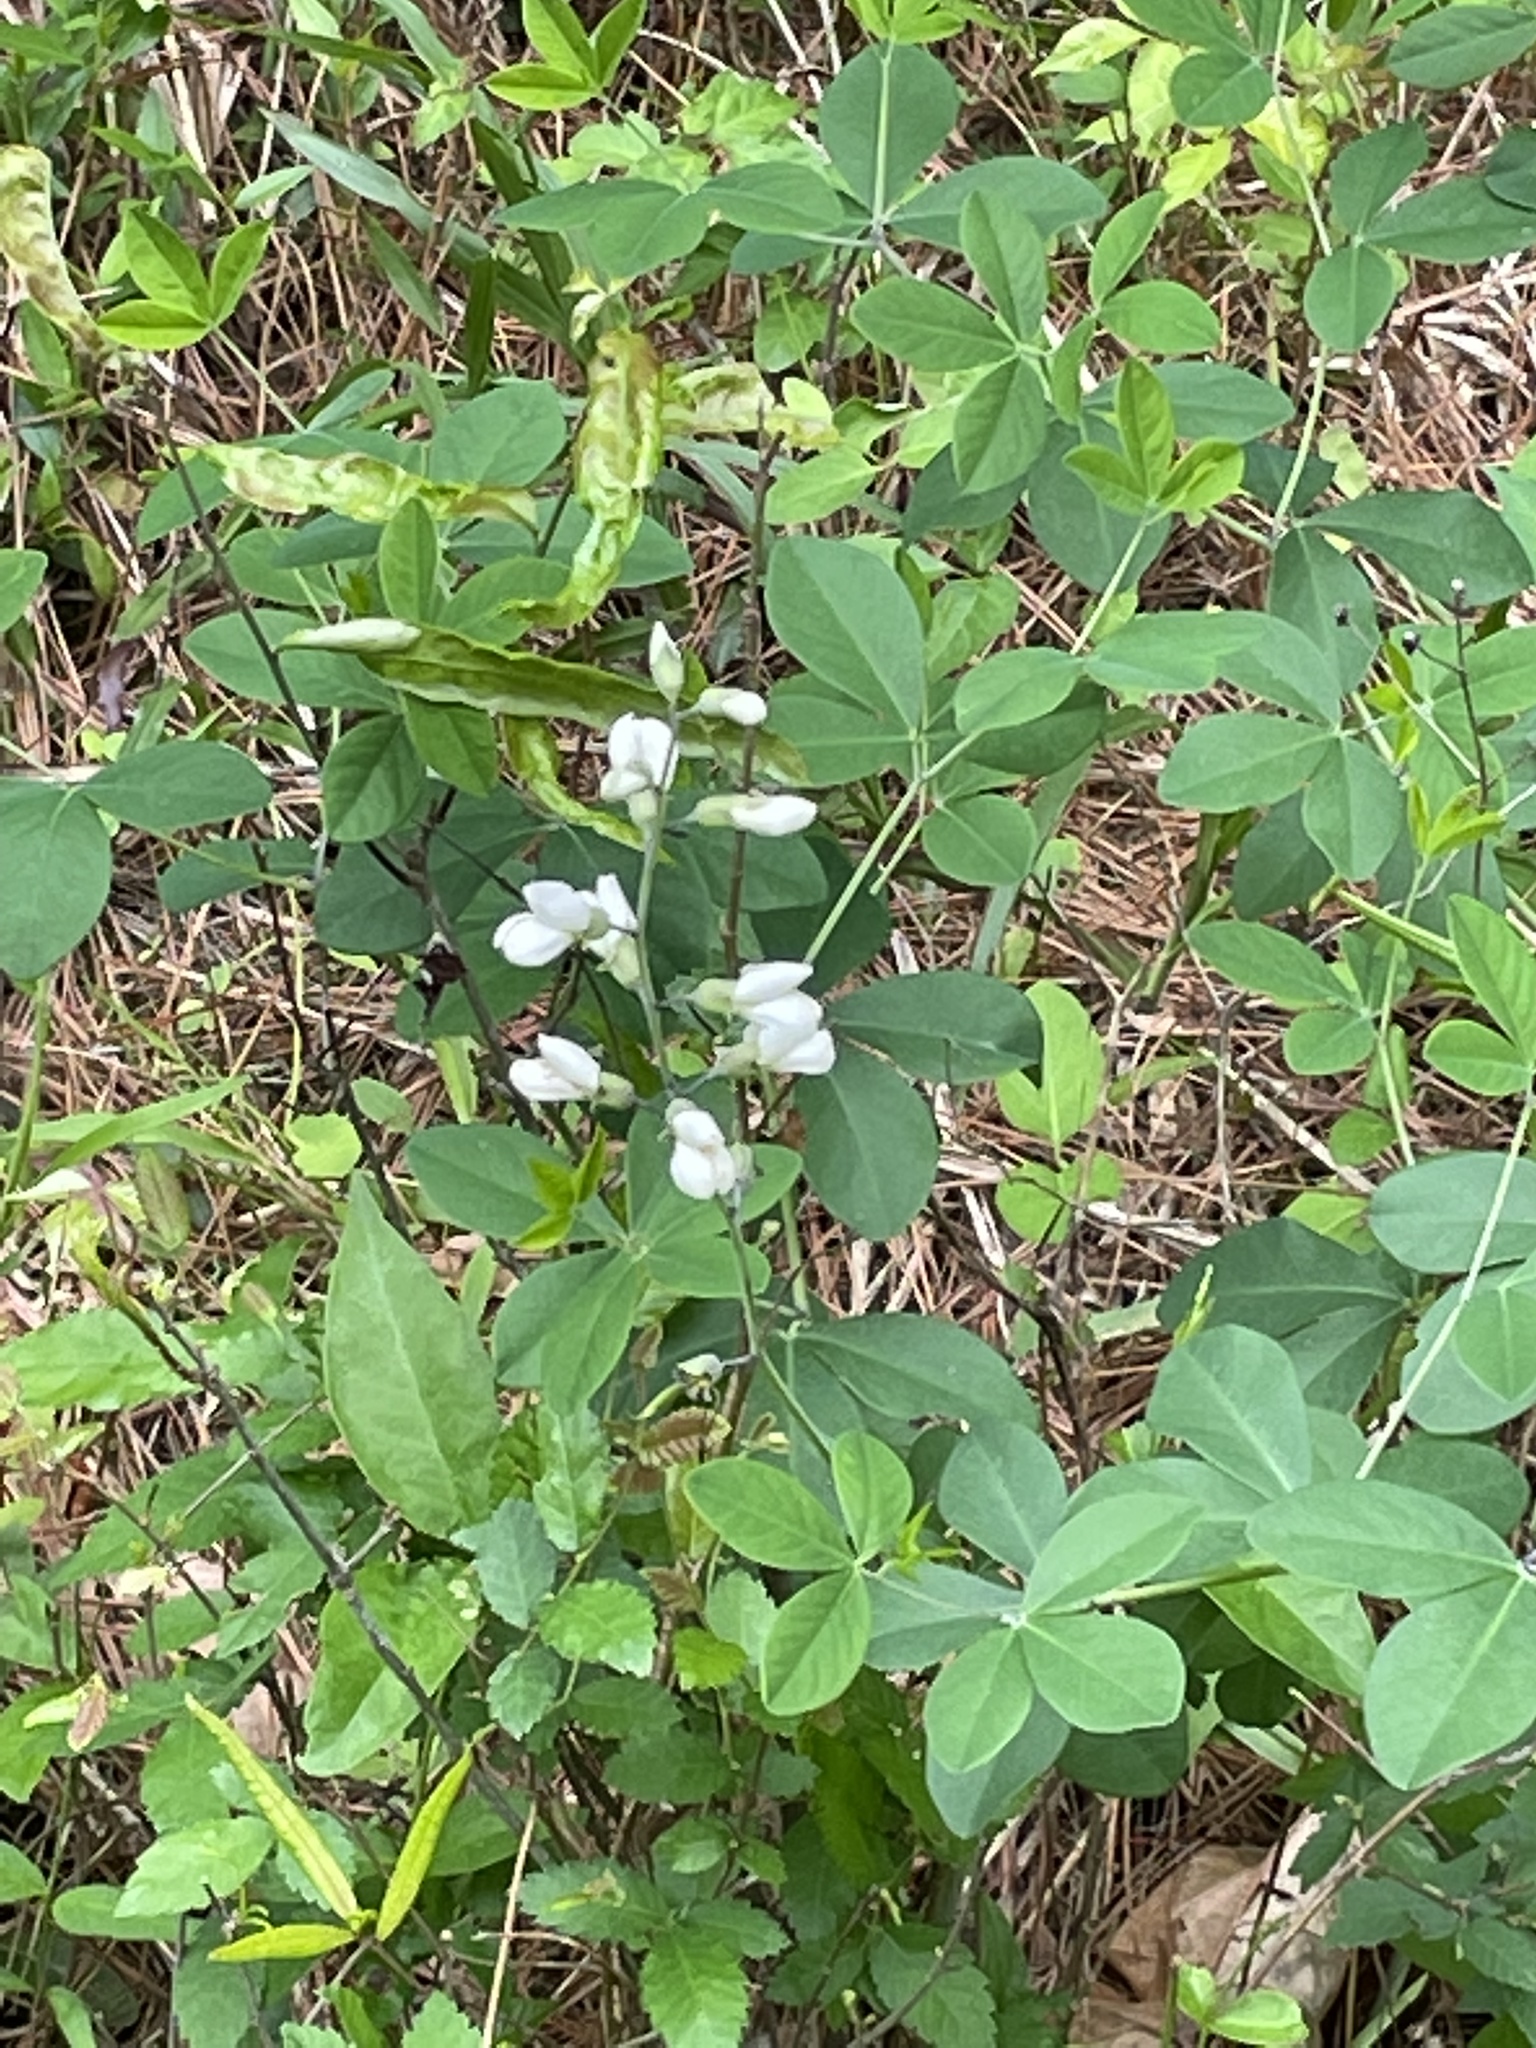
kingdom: Plantae
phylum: Tracheophyta
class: Magnoliopsida
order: Fabales
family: Fabaceae
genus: Baptisia
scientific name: Baptisia alba
